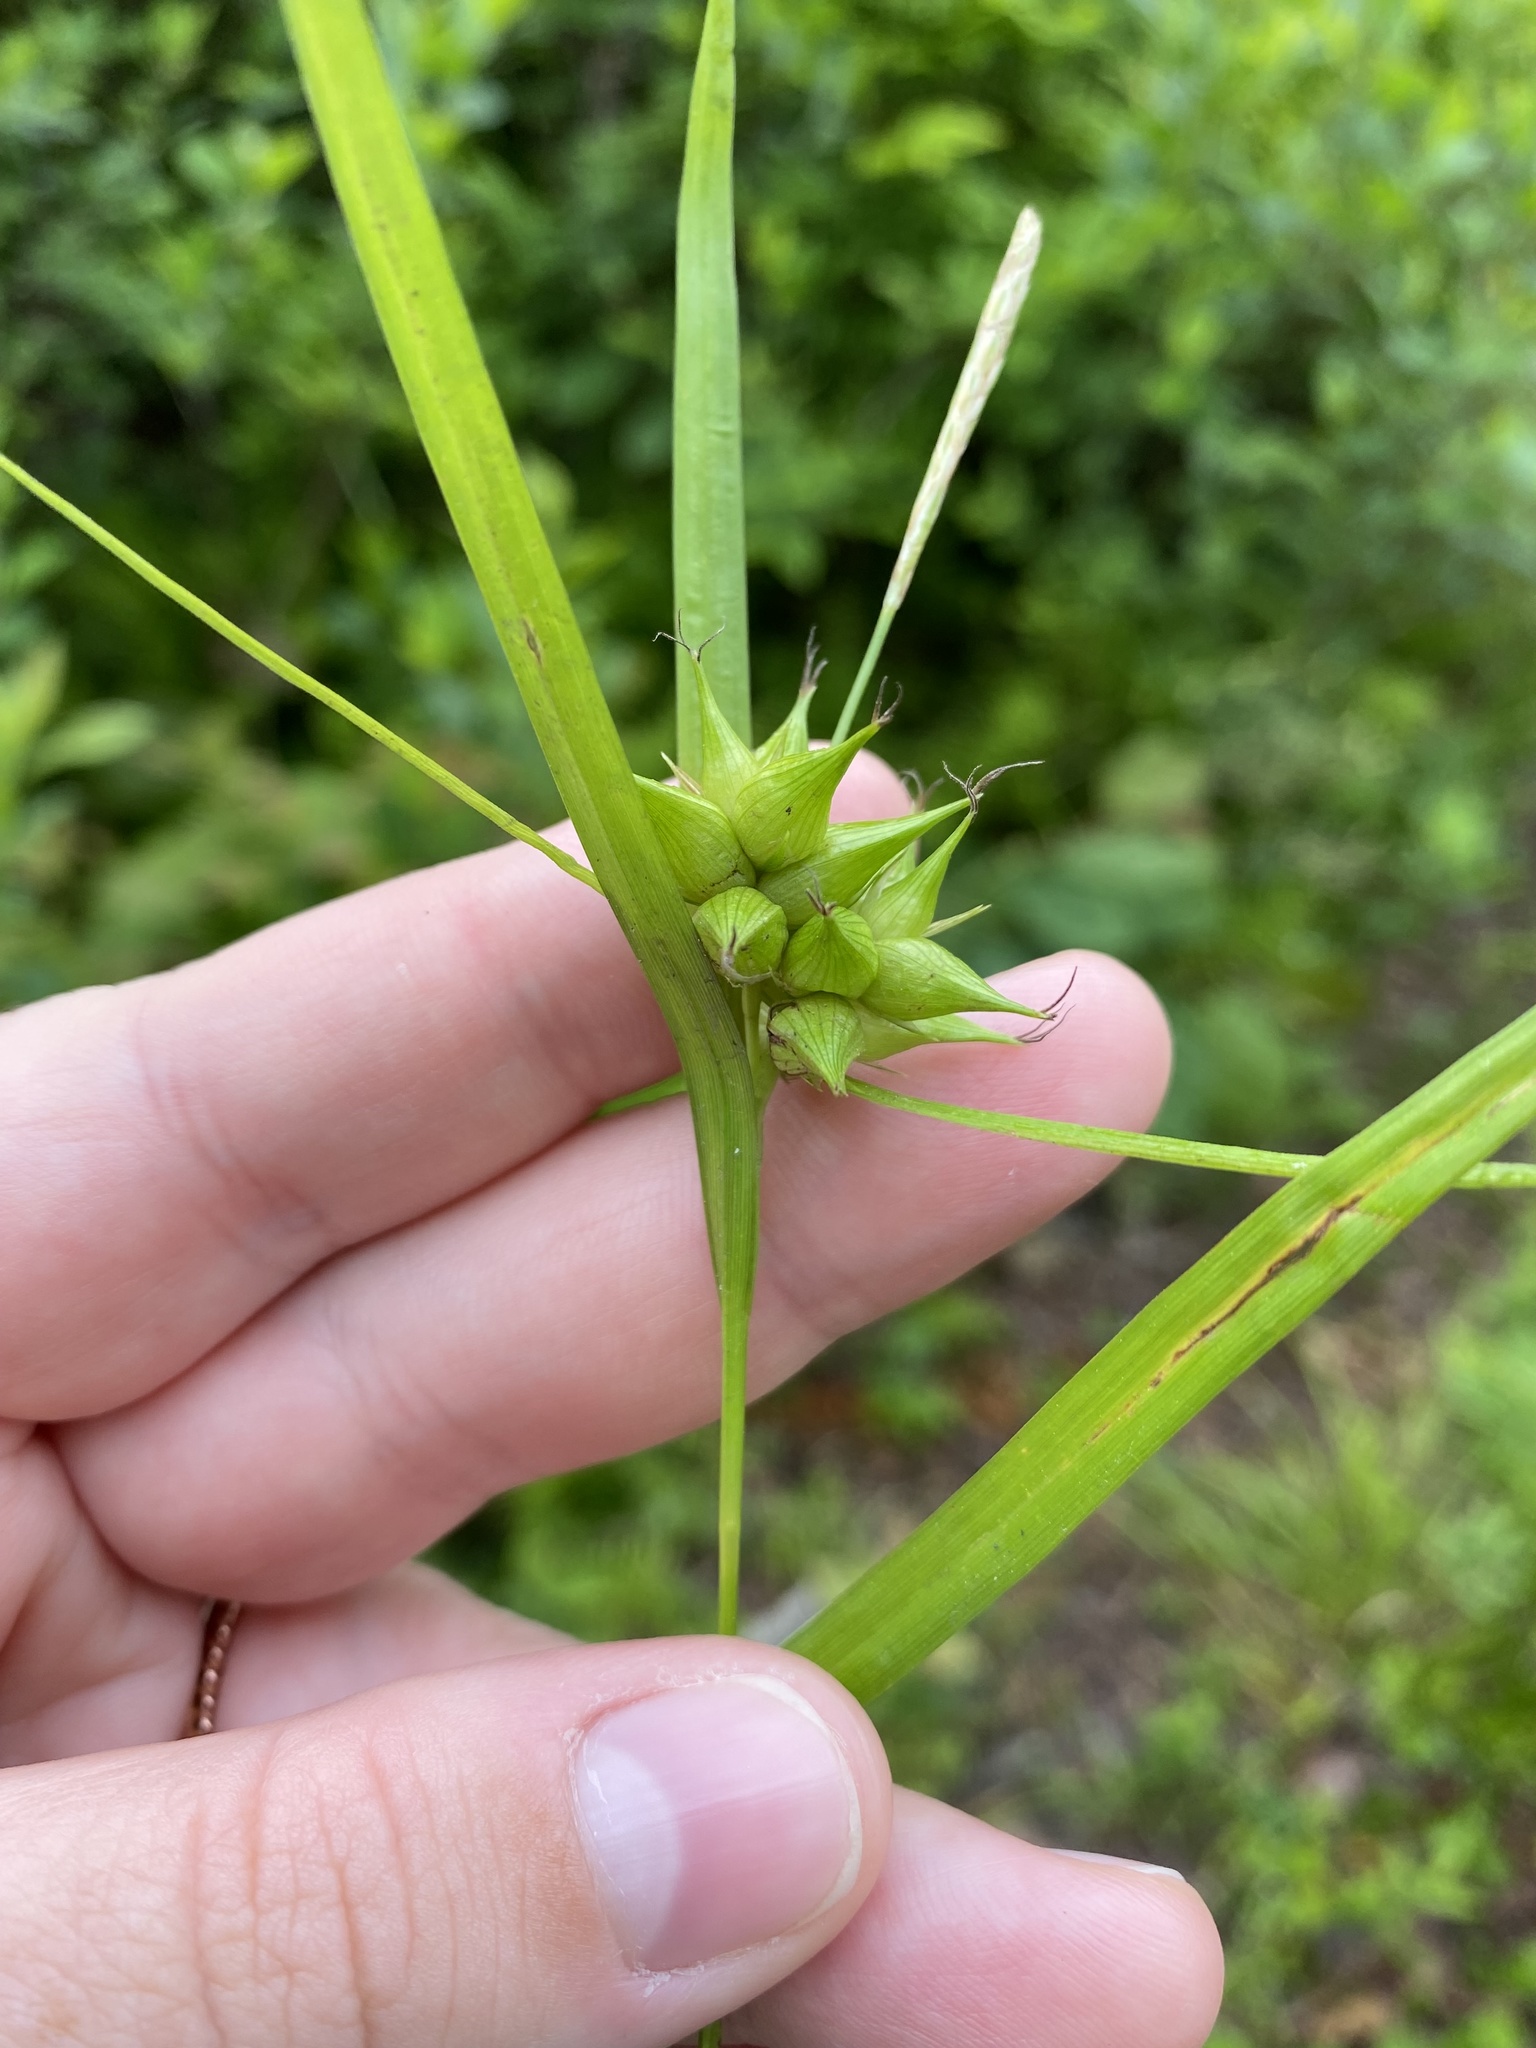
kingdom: Plantae
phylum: Tracheophyta
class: Liliopsida
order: Poales
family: Cyperaceae
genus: Carex
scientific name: Carex intumescens
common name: Greater bladder sedge
